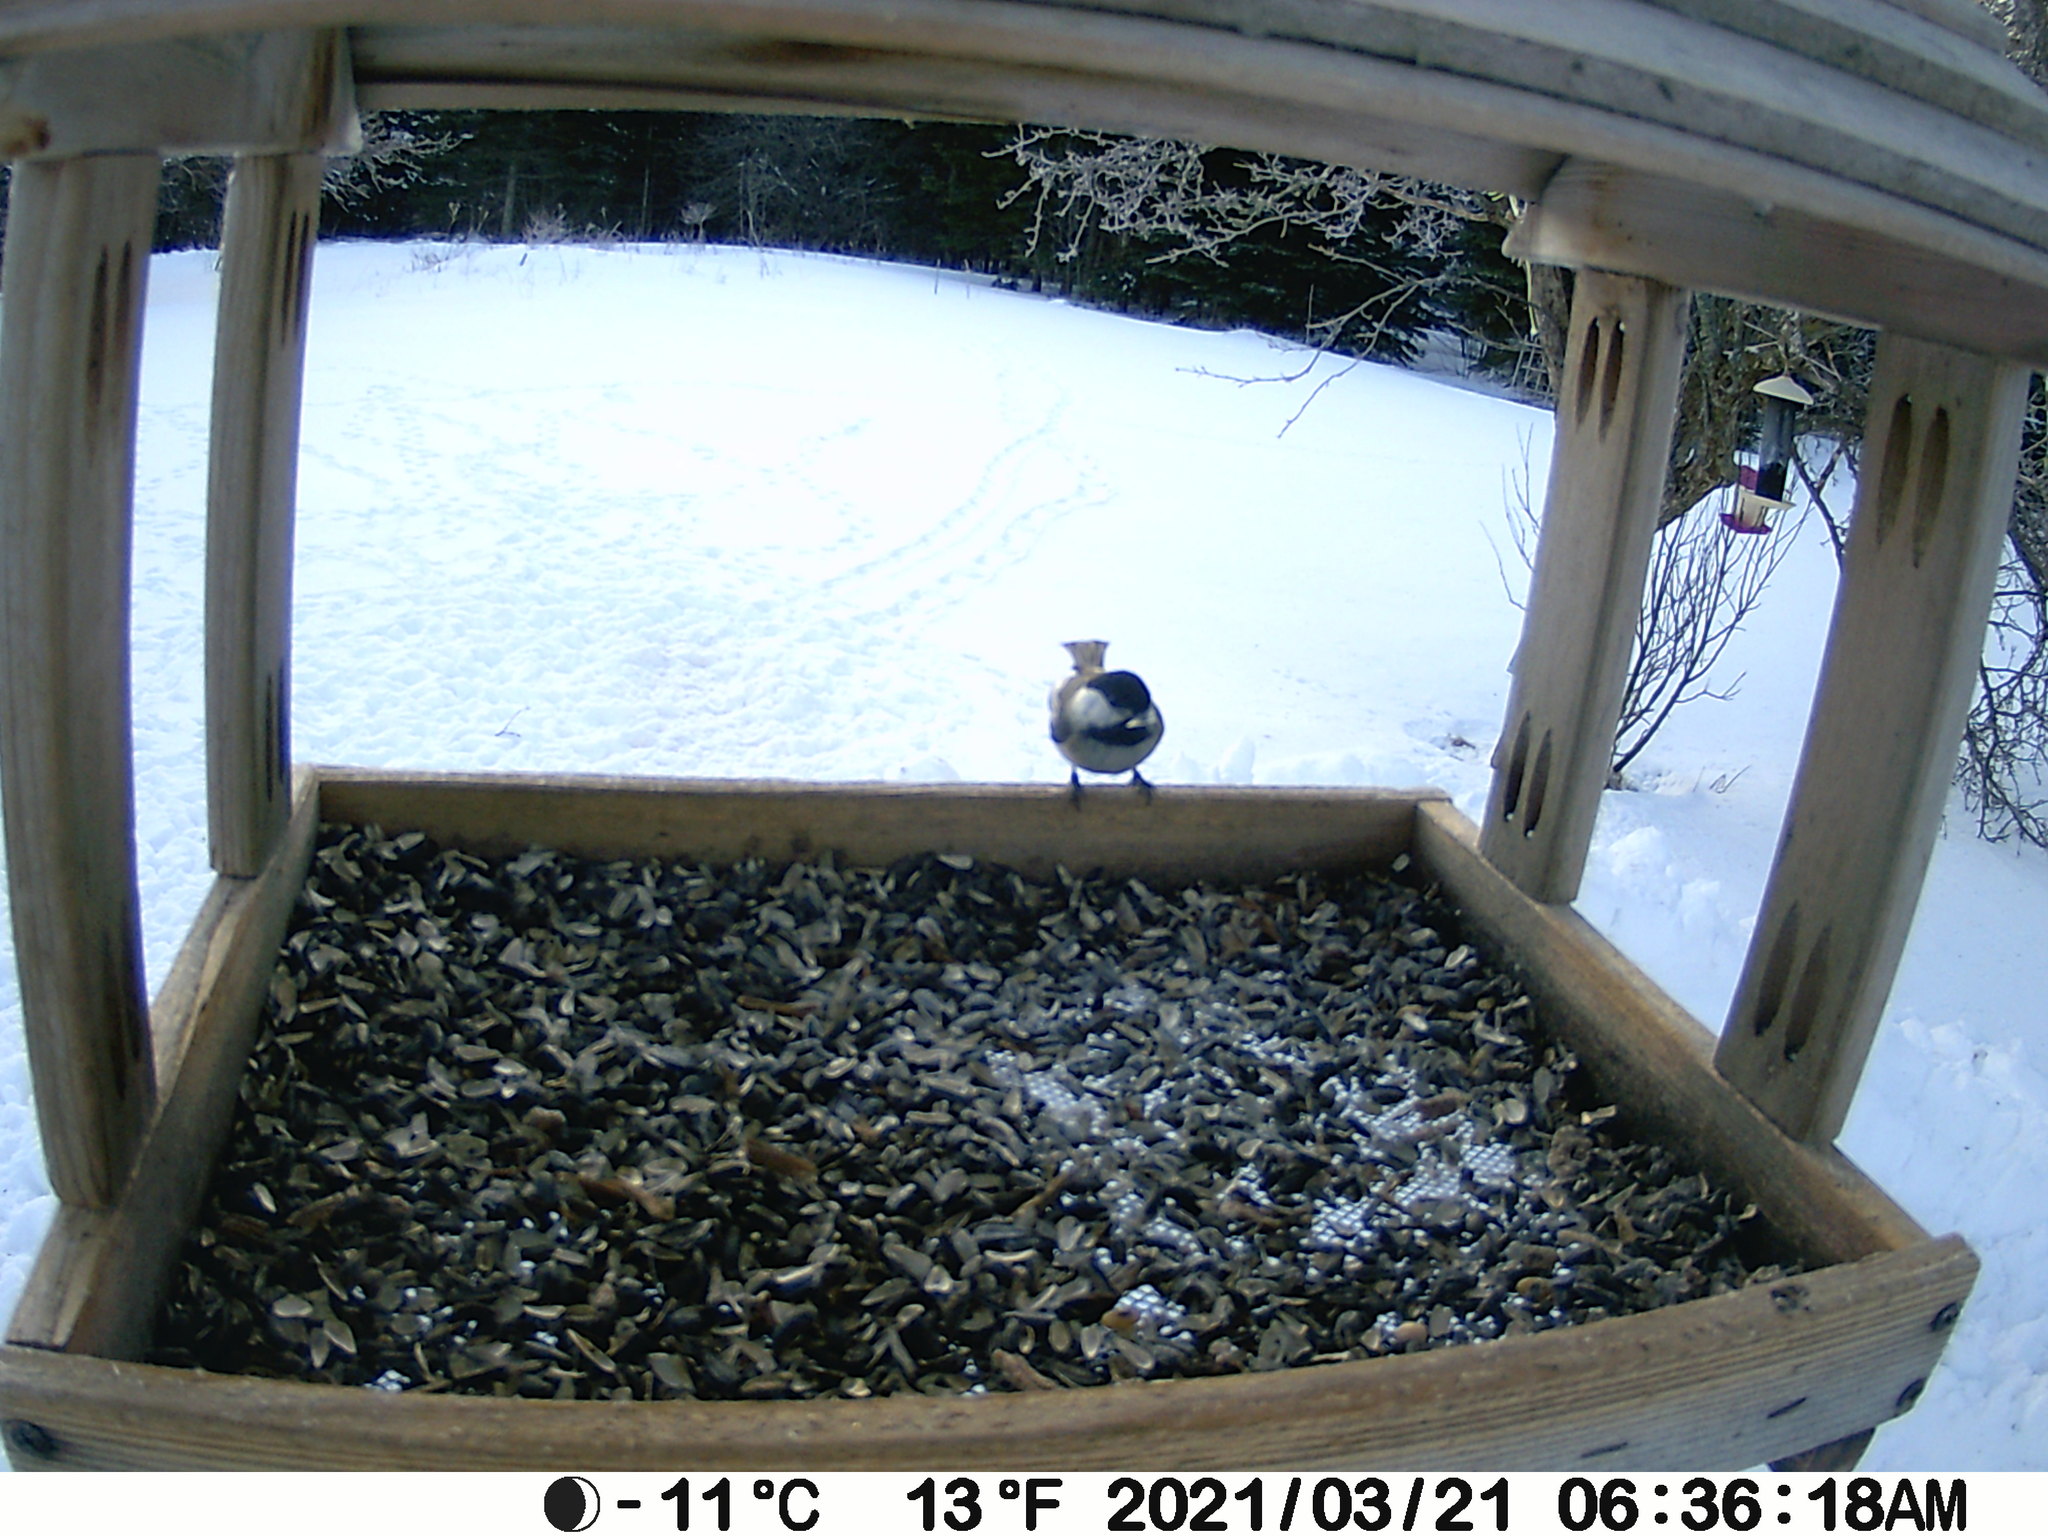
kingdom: Animalia
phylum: Chordata
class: Aves
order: Passeriformes
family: Paridae
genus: Poecile
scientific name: Poecile atricapillus
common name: Black-capped chickadee
